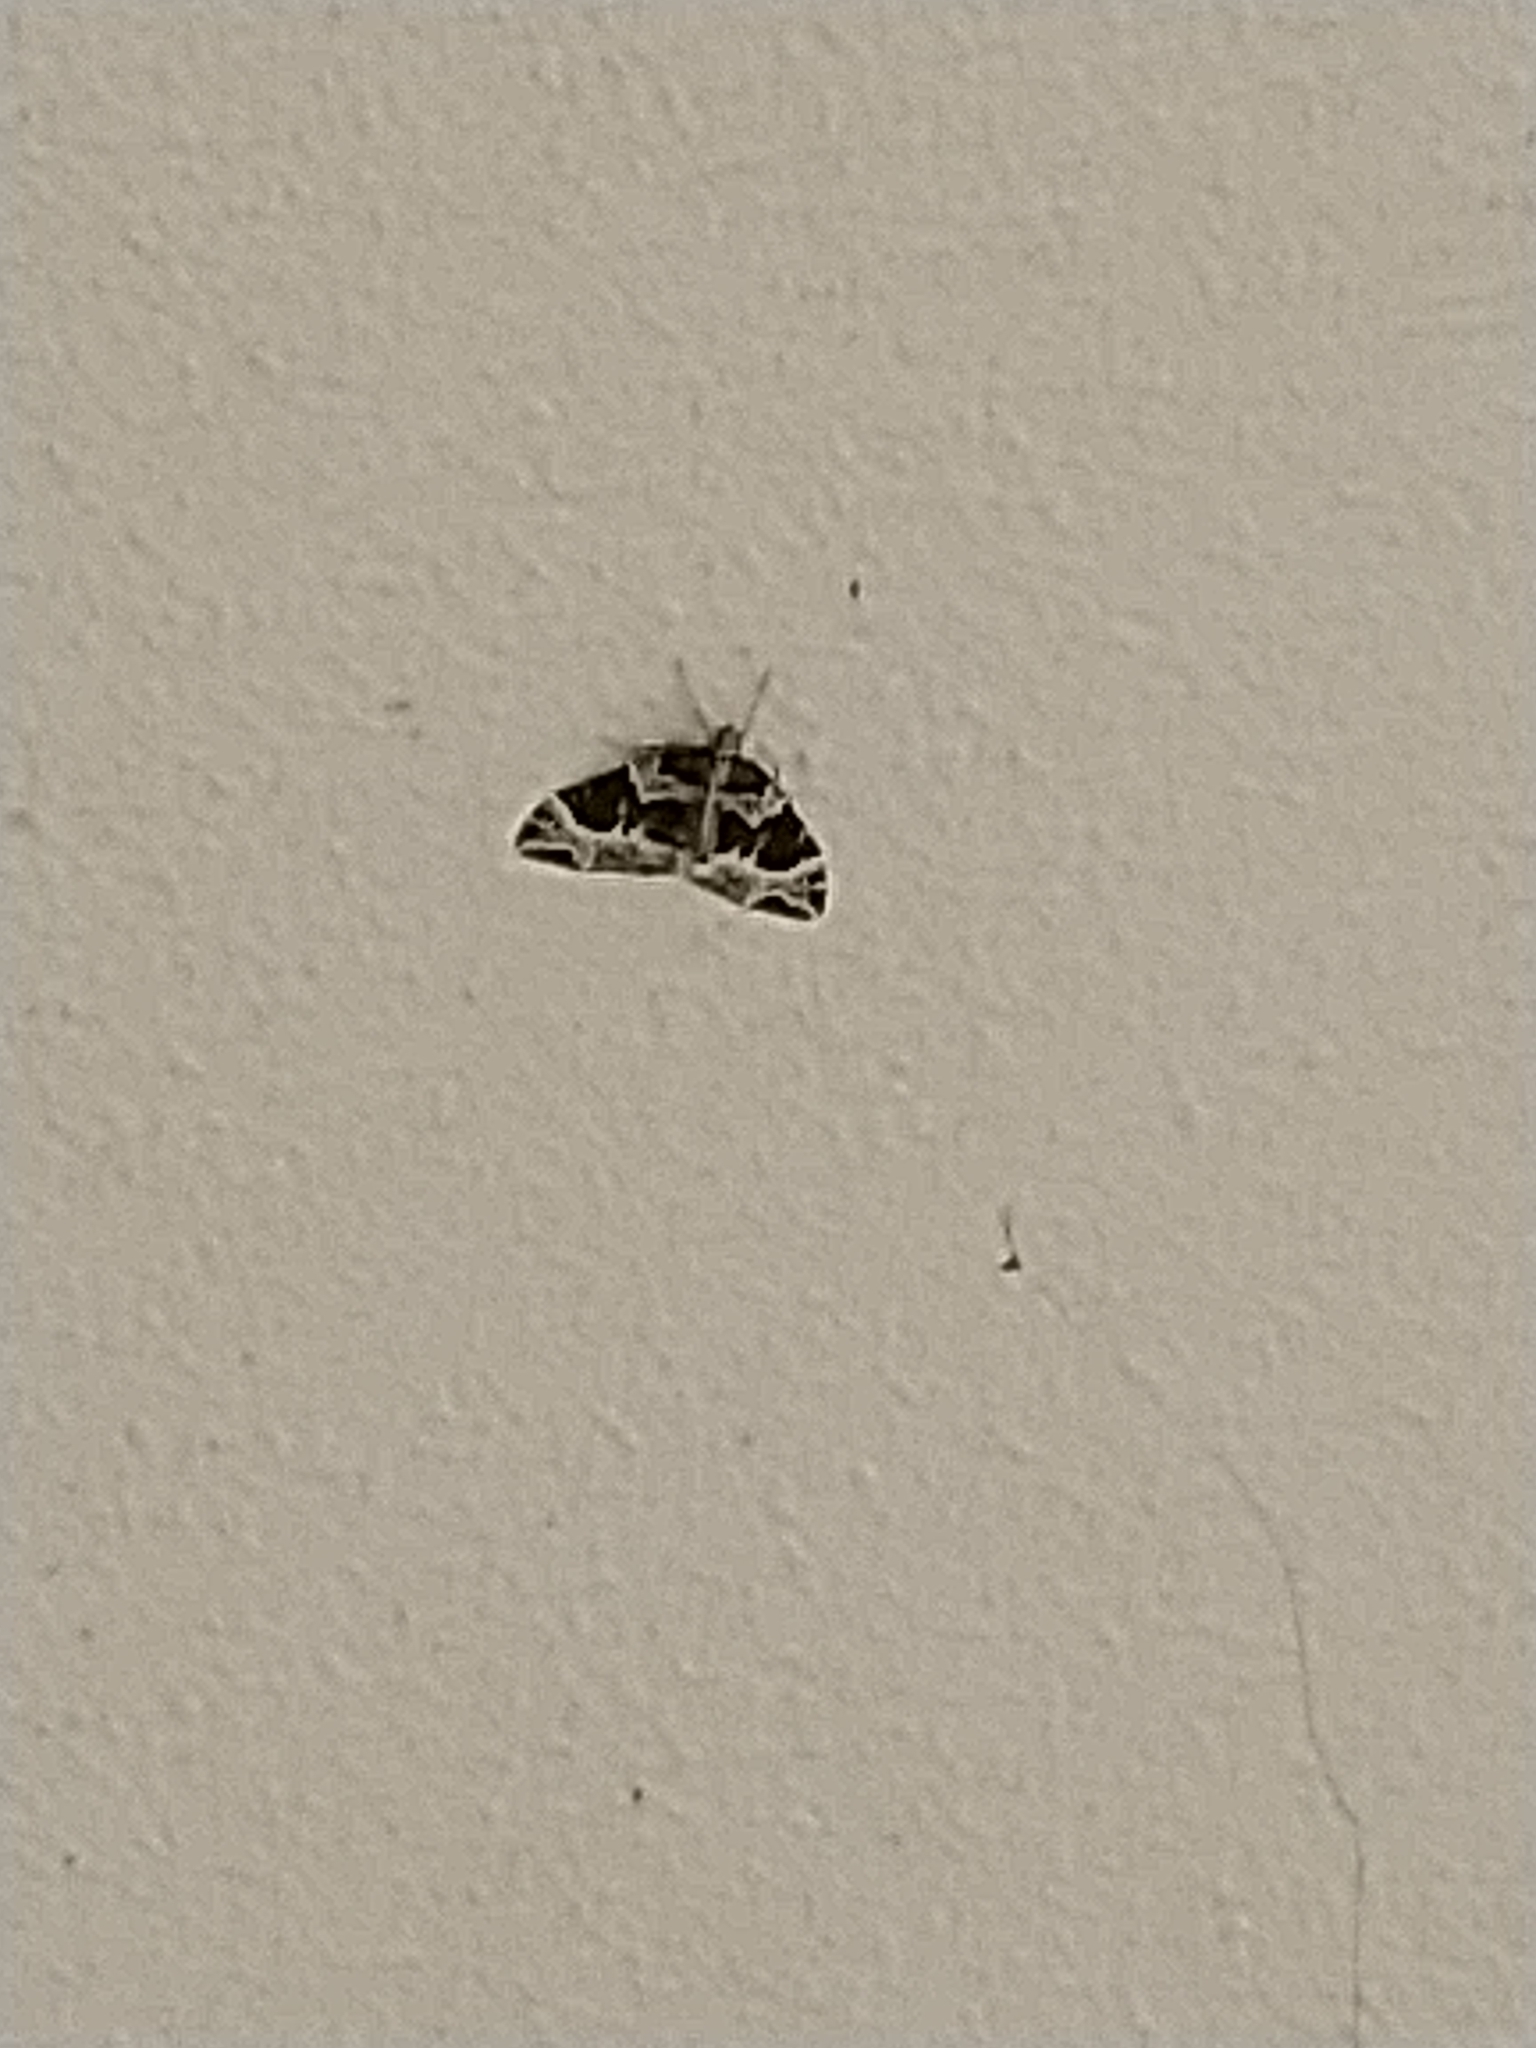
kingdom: Animalia
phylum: Arthropoda
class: Insecta
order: Lepidoptera
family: Geometridae
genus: Ecliptopera
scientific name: Ecliptopera silaceata
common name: Small phoenix
